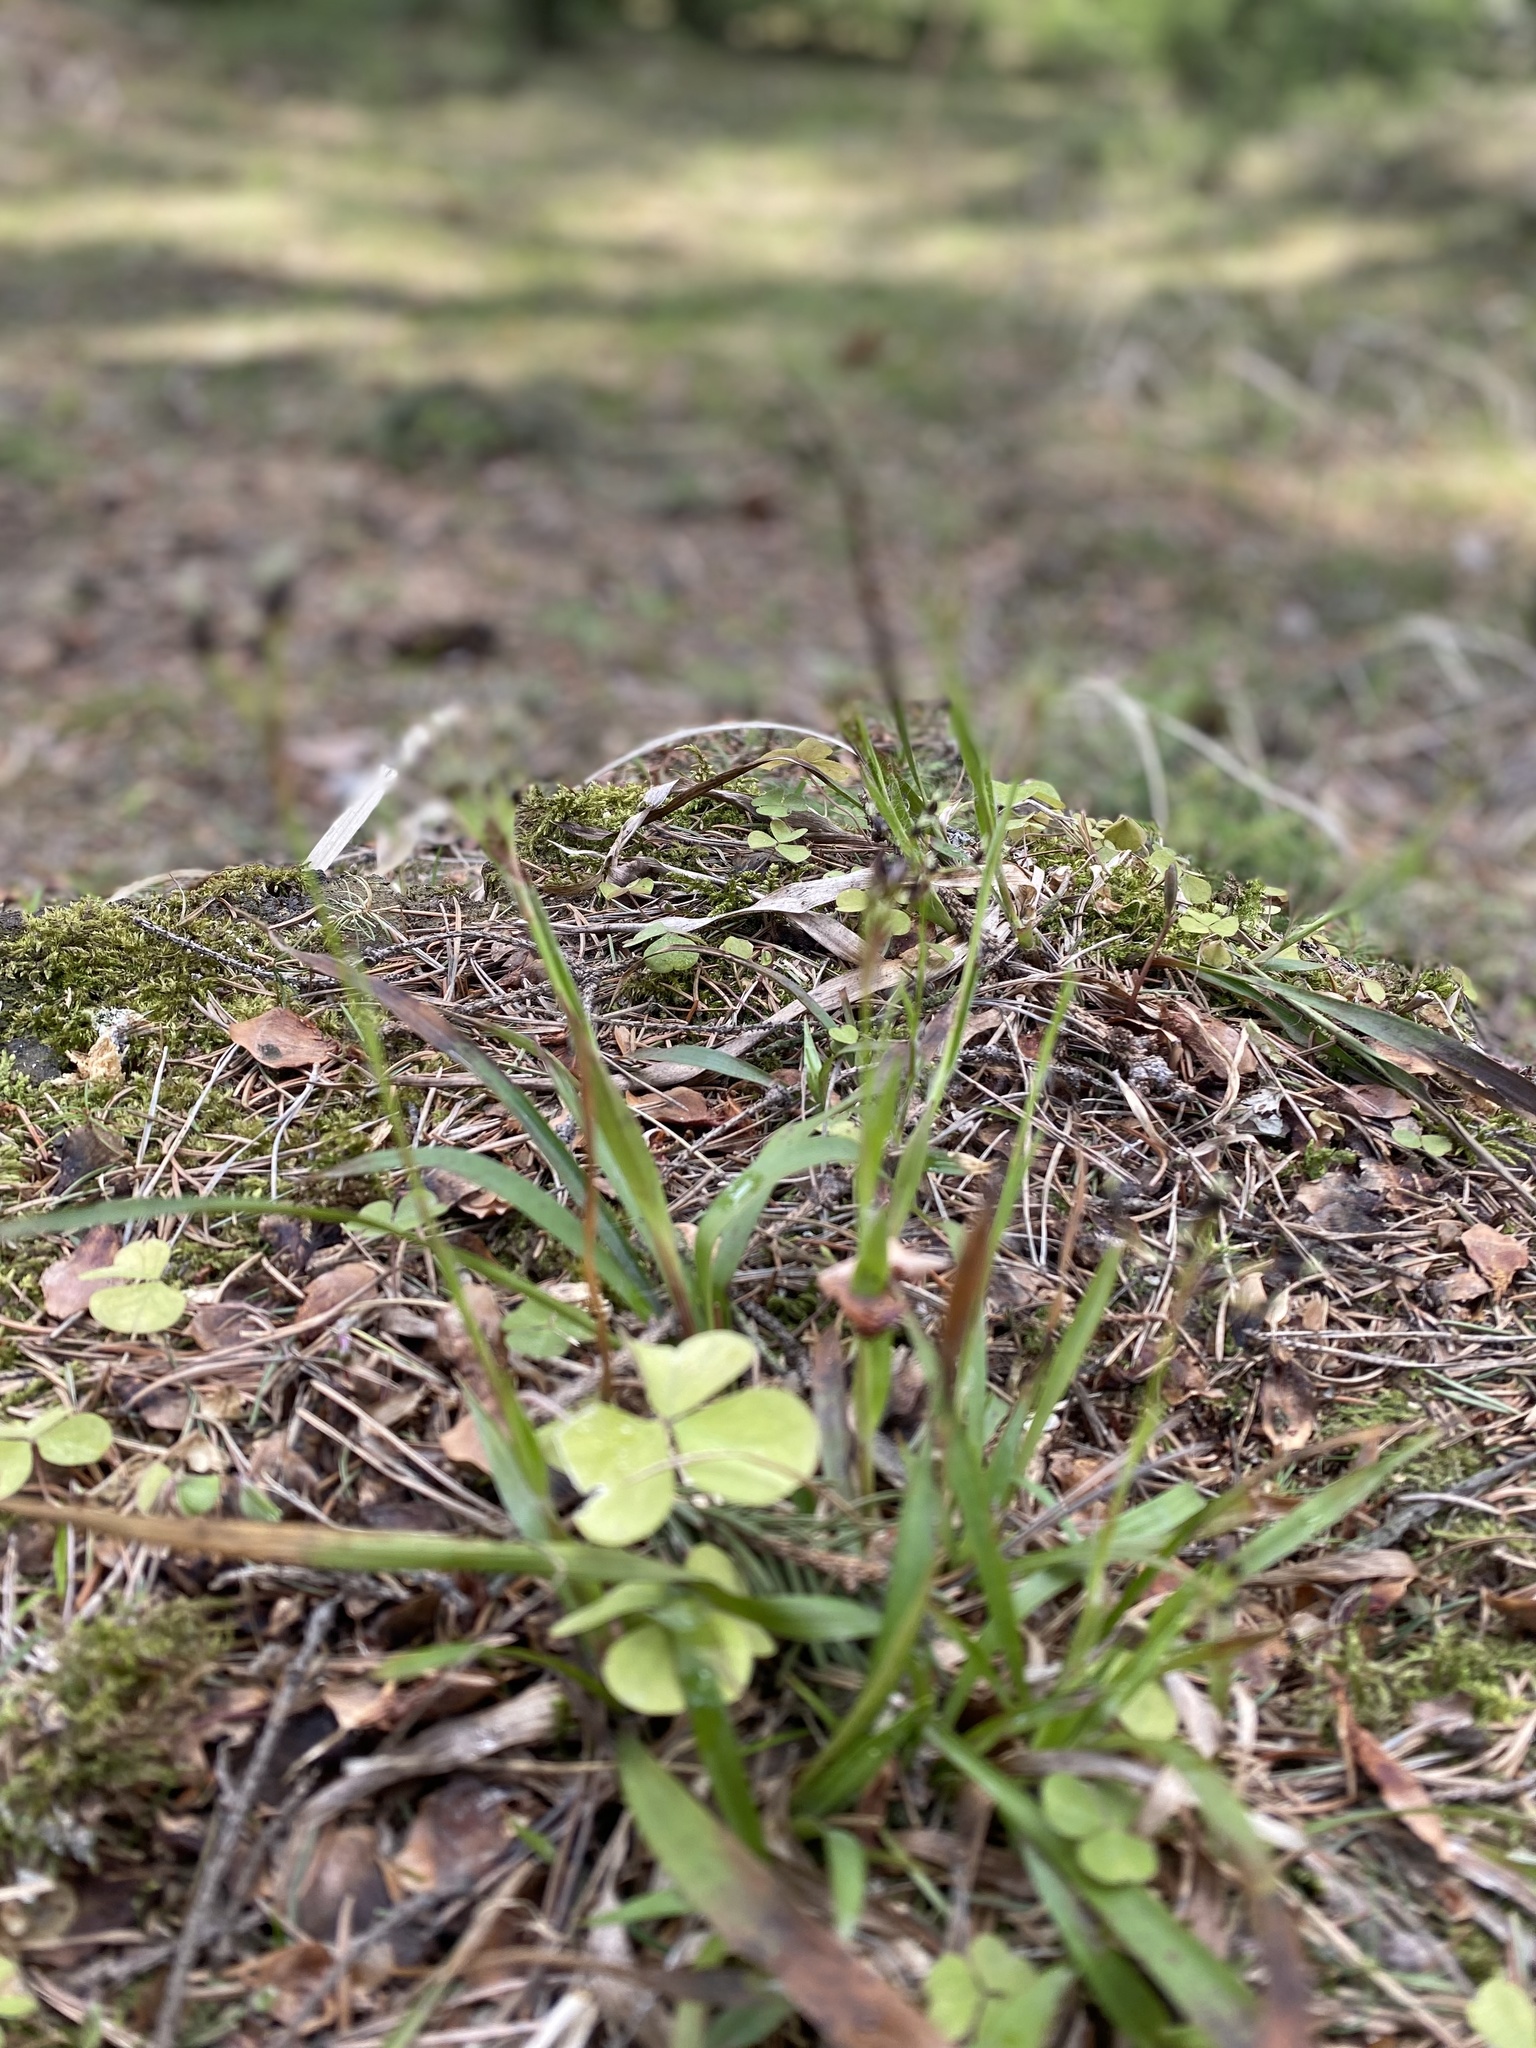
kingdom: Plantae
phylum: Tracheophyta
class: Liliopsida
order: Poales
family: Juncaceae
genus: Luzula
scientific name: Luzula pilosa
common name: Hairy wood-rush
